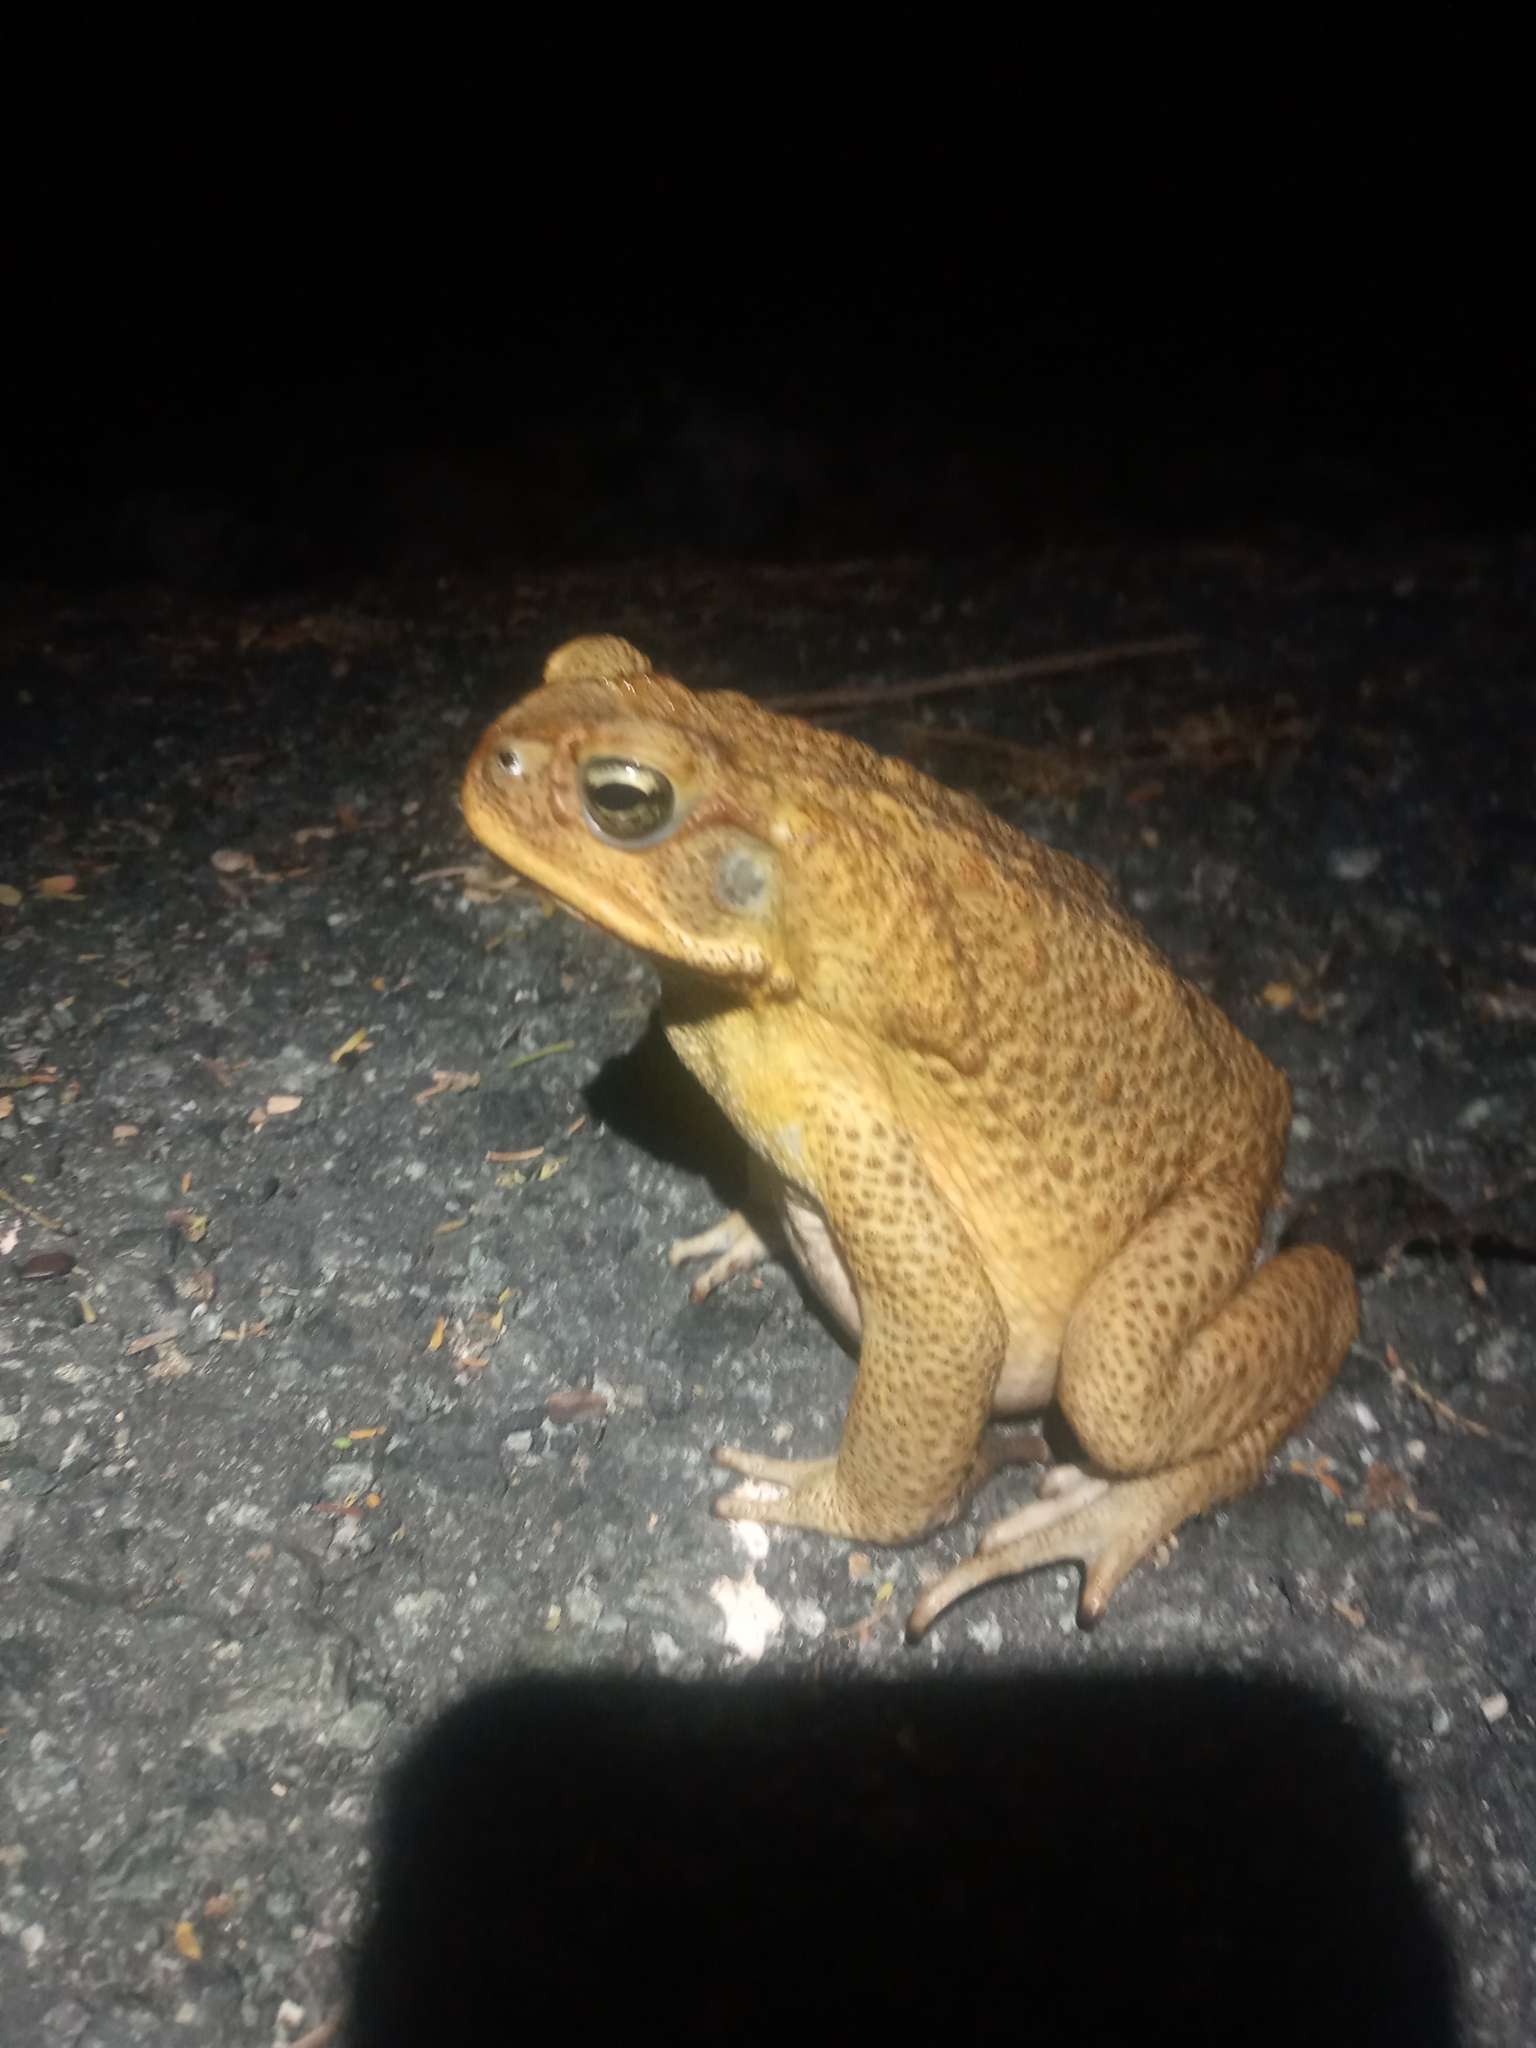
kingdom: Animalia
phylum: Chordata
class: Amphibia
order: Anura
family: Bufonidae
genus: Rhinella
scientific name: Rhinella marina
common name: Cane toad
